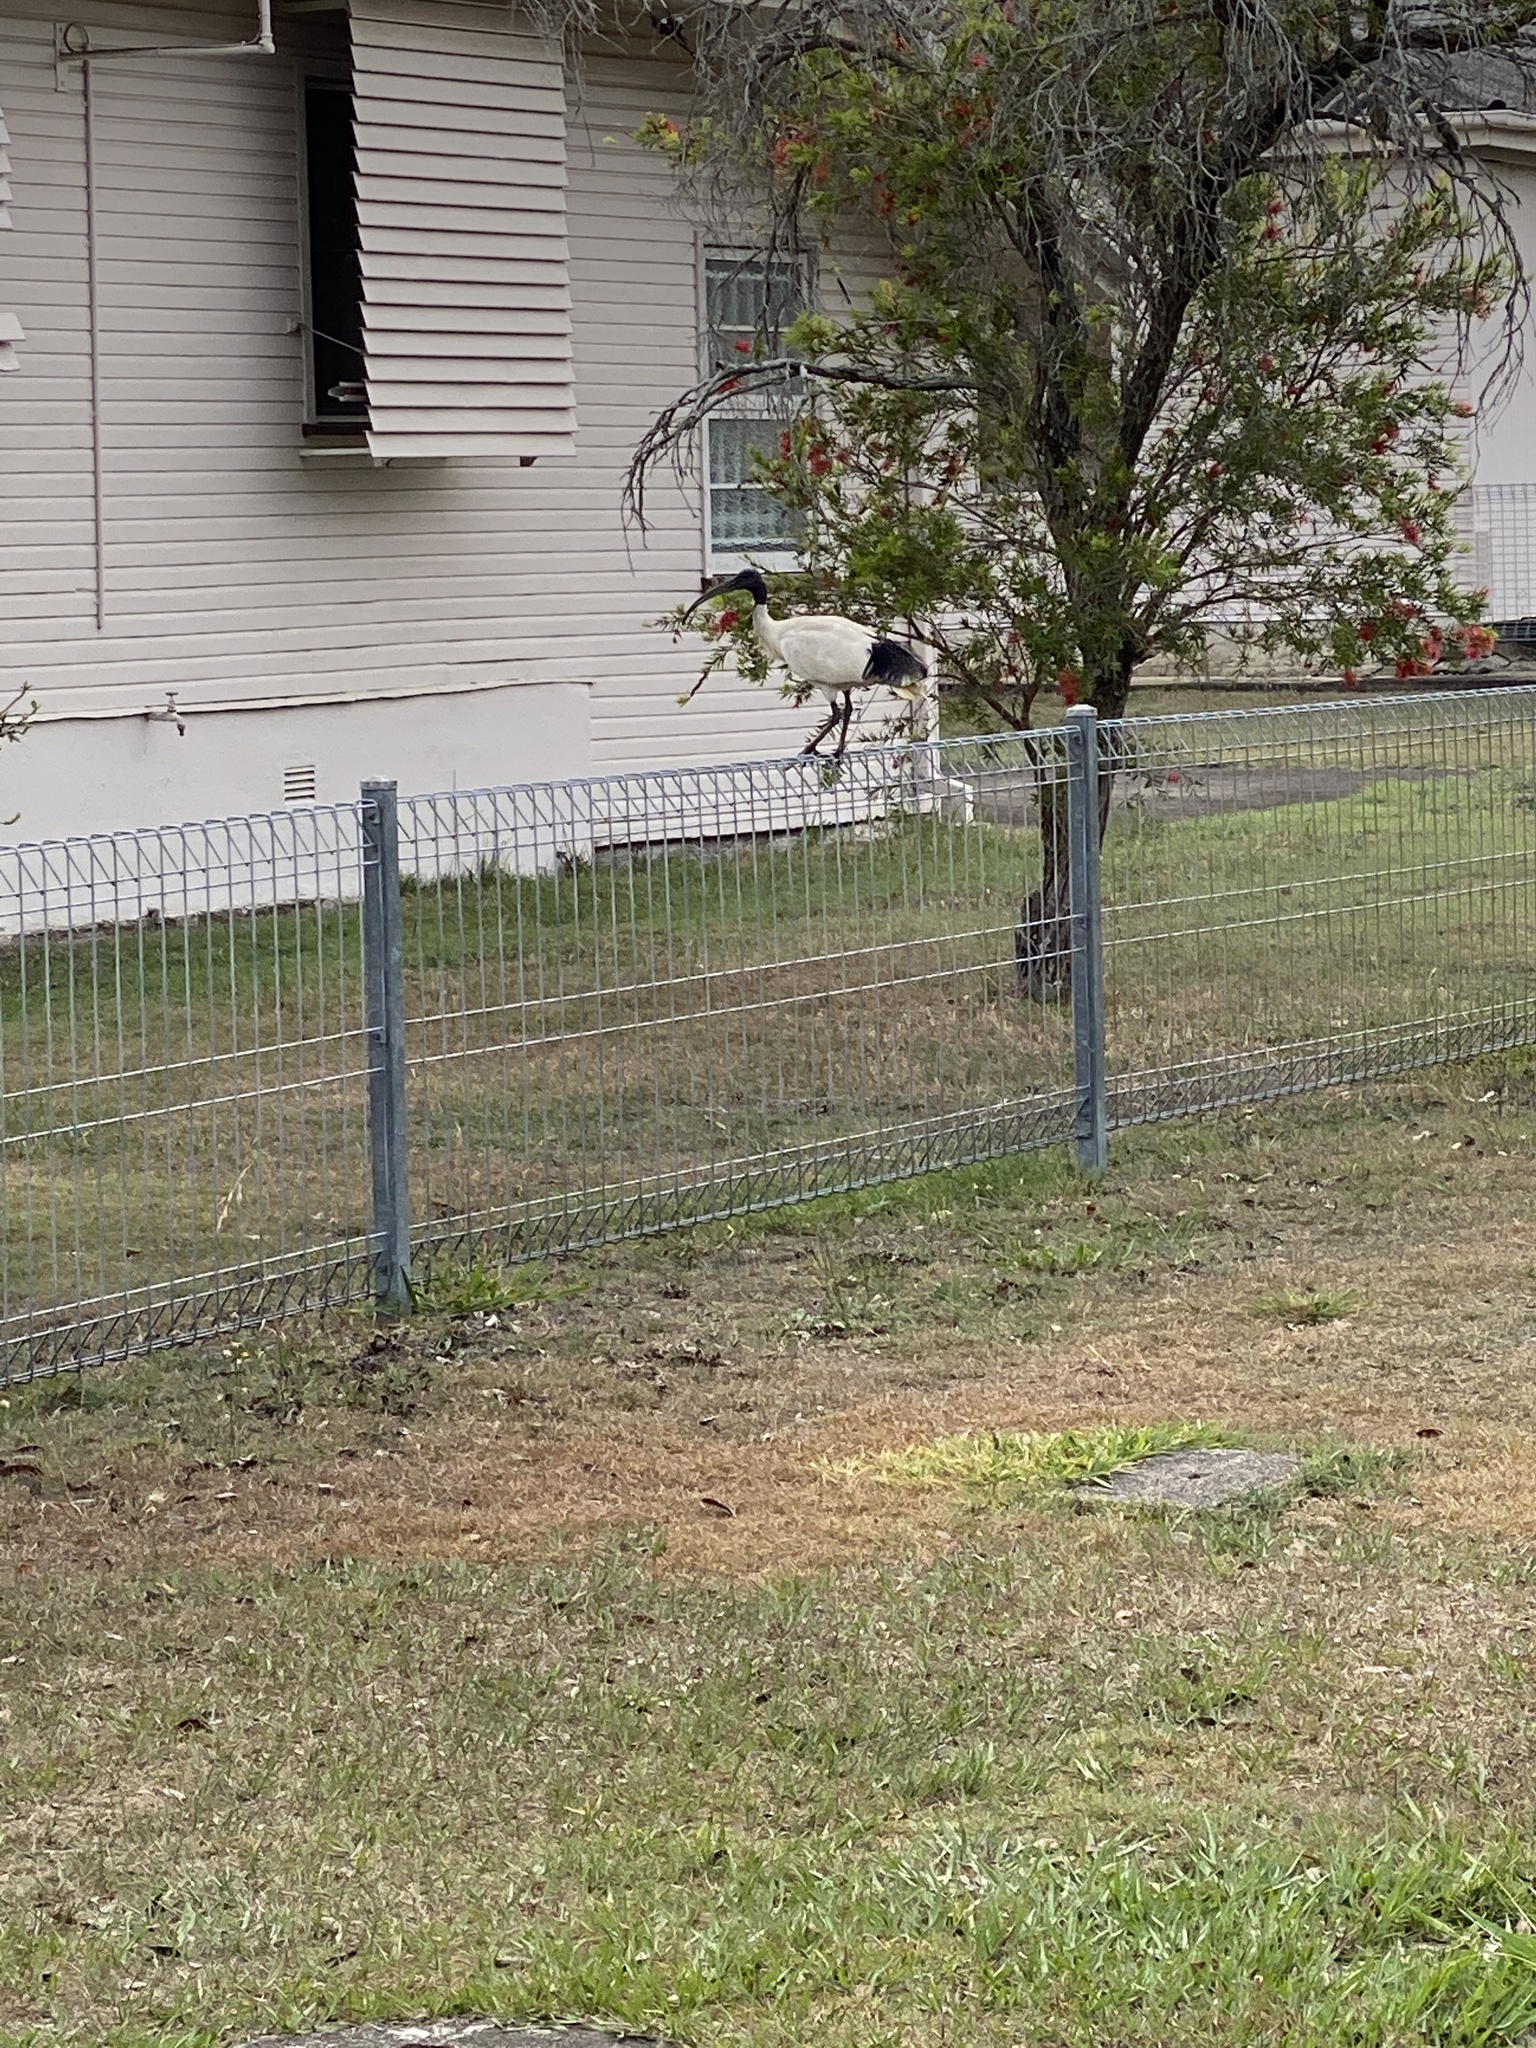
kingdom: Animalia
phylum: Chordata
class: Aves
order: Pelecaniformes
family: Threskiornithidae
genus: Threskiornis
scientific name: Threskiornis molucca
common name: Australian white ibis
